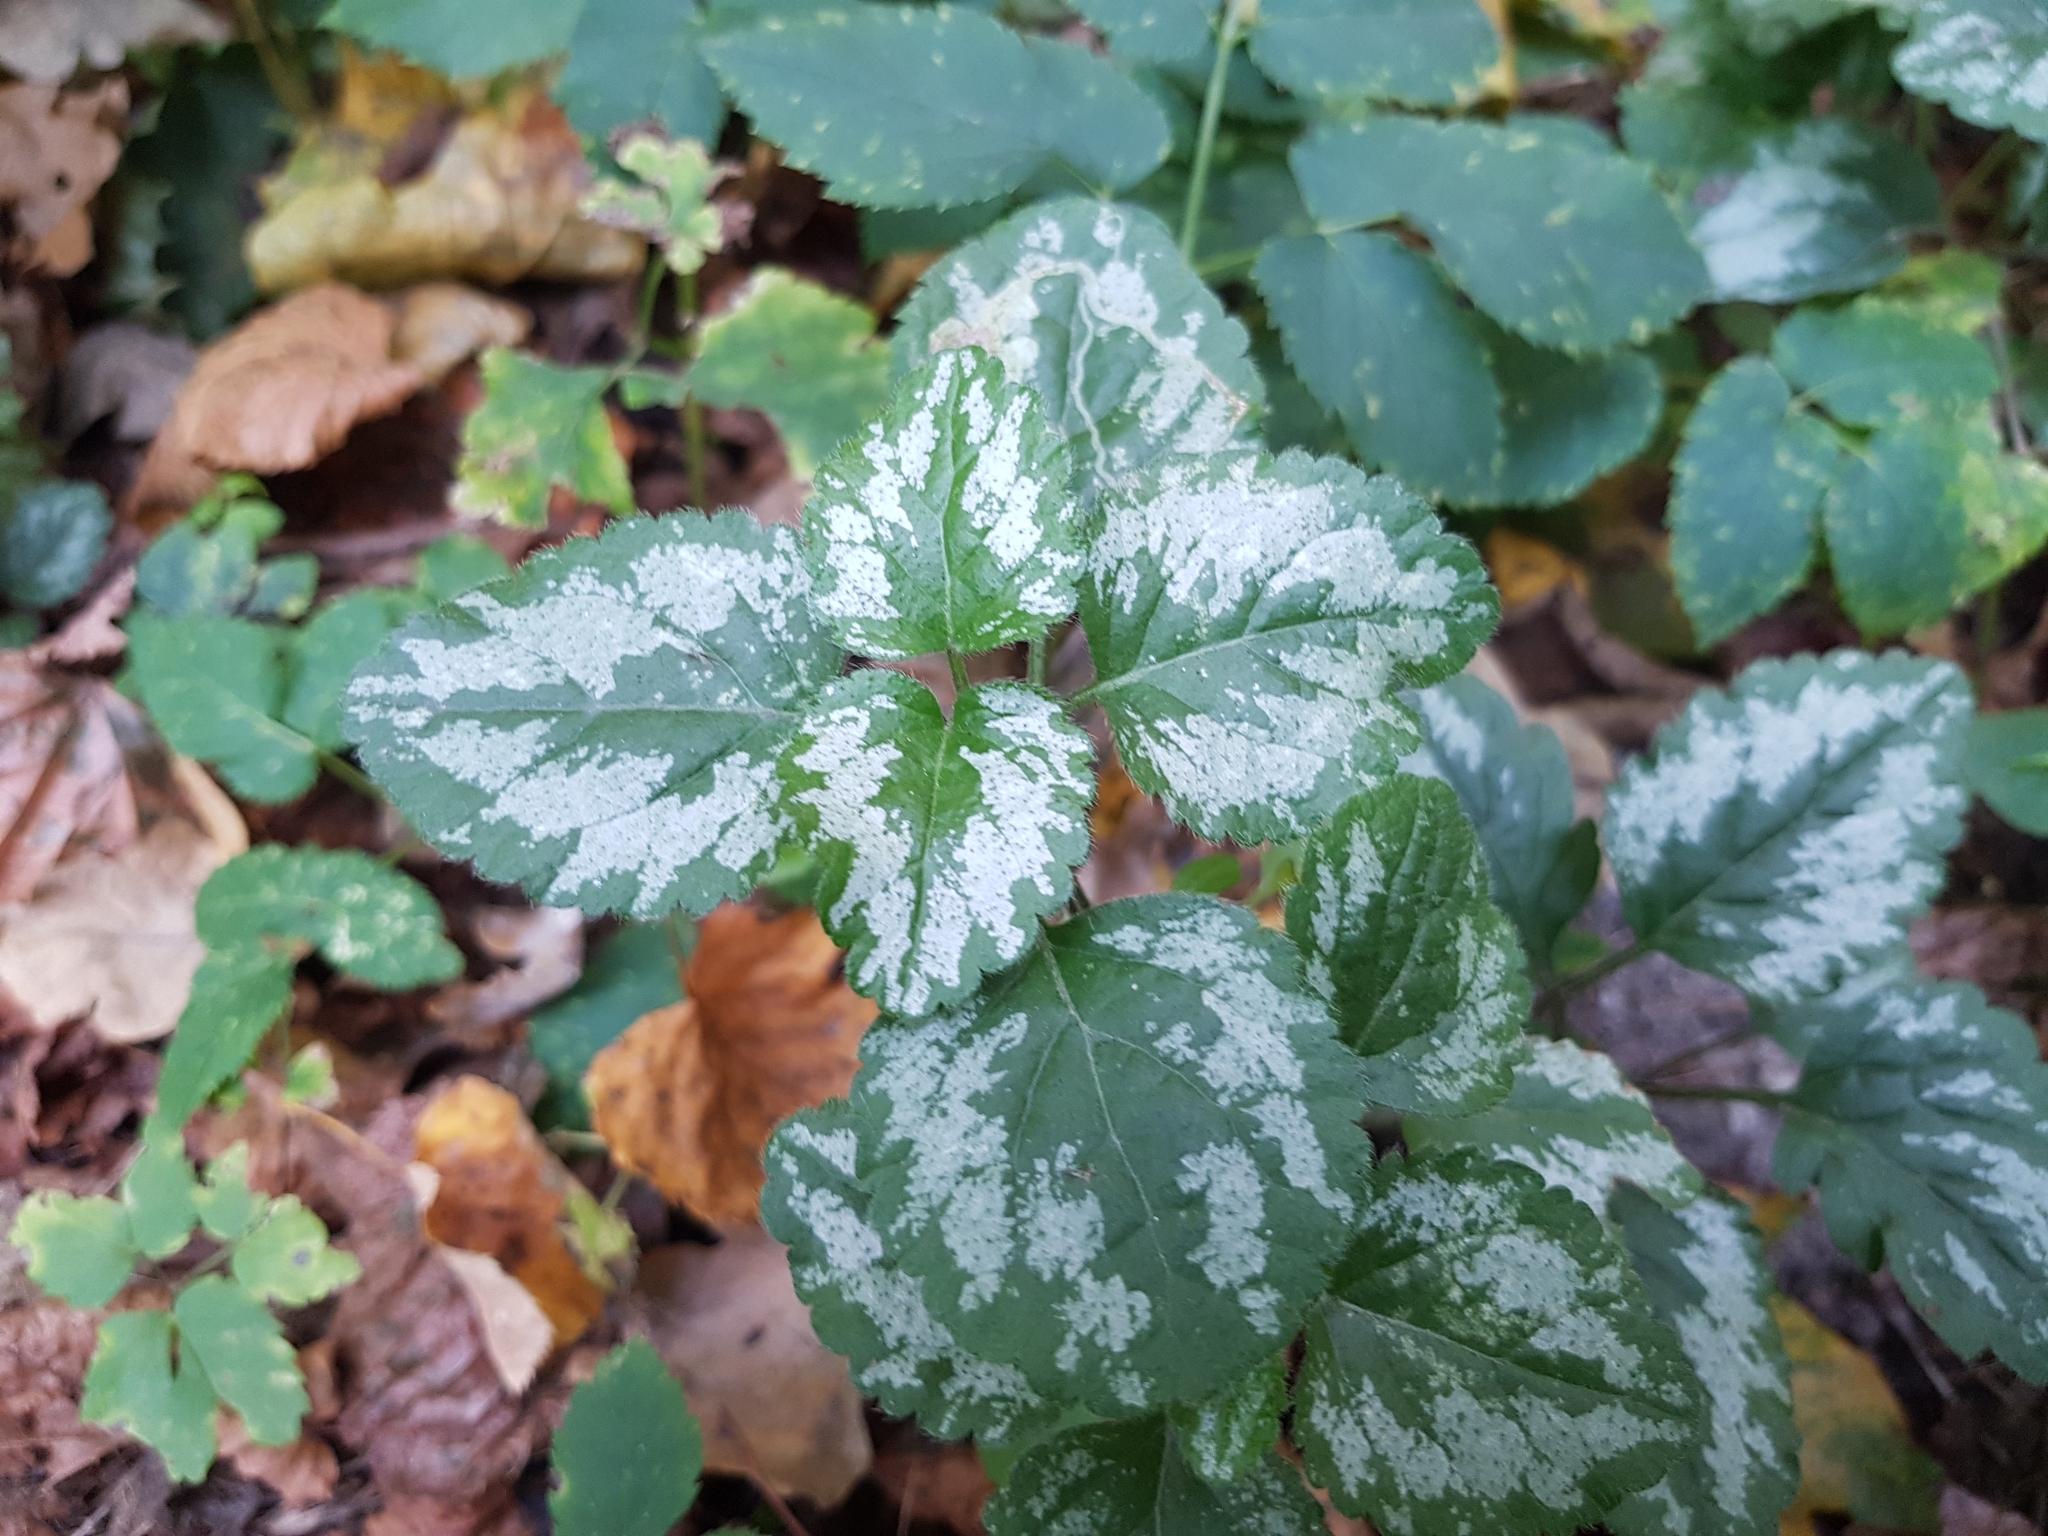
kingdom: Plantae
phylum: Tracheophyta
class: Magnoliopsida
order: Lamiales
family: Lamiaceae
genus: Lamium
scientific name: Lamium galeobdolon
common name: Yellow archangel
